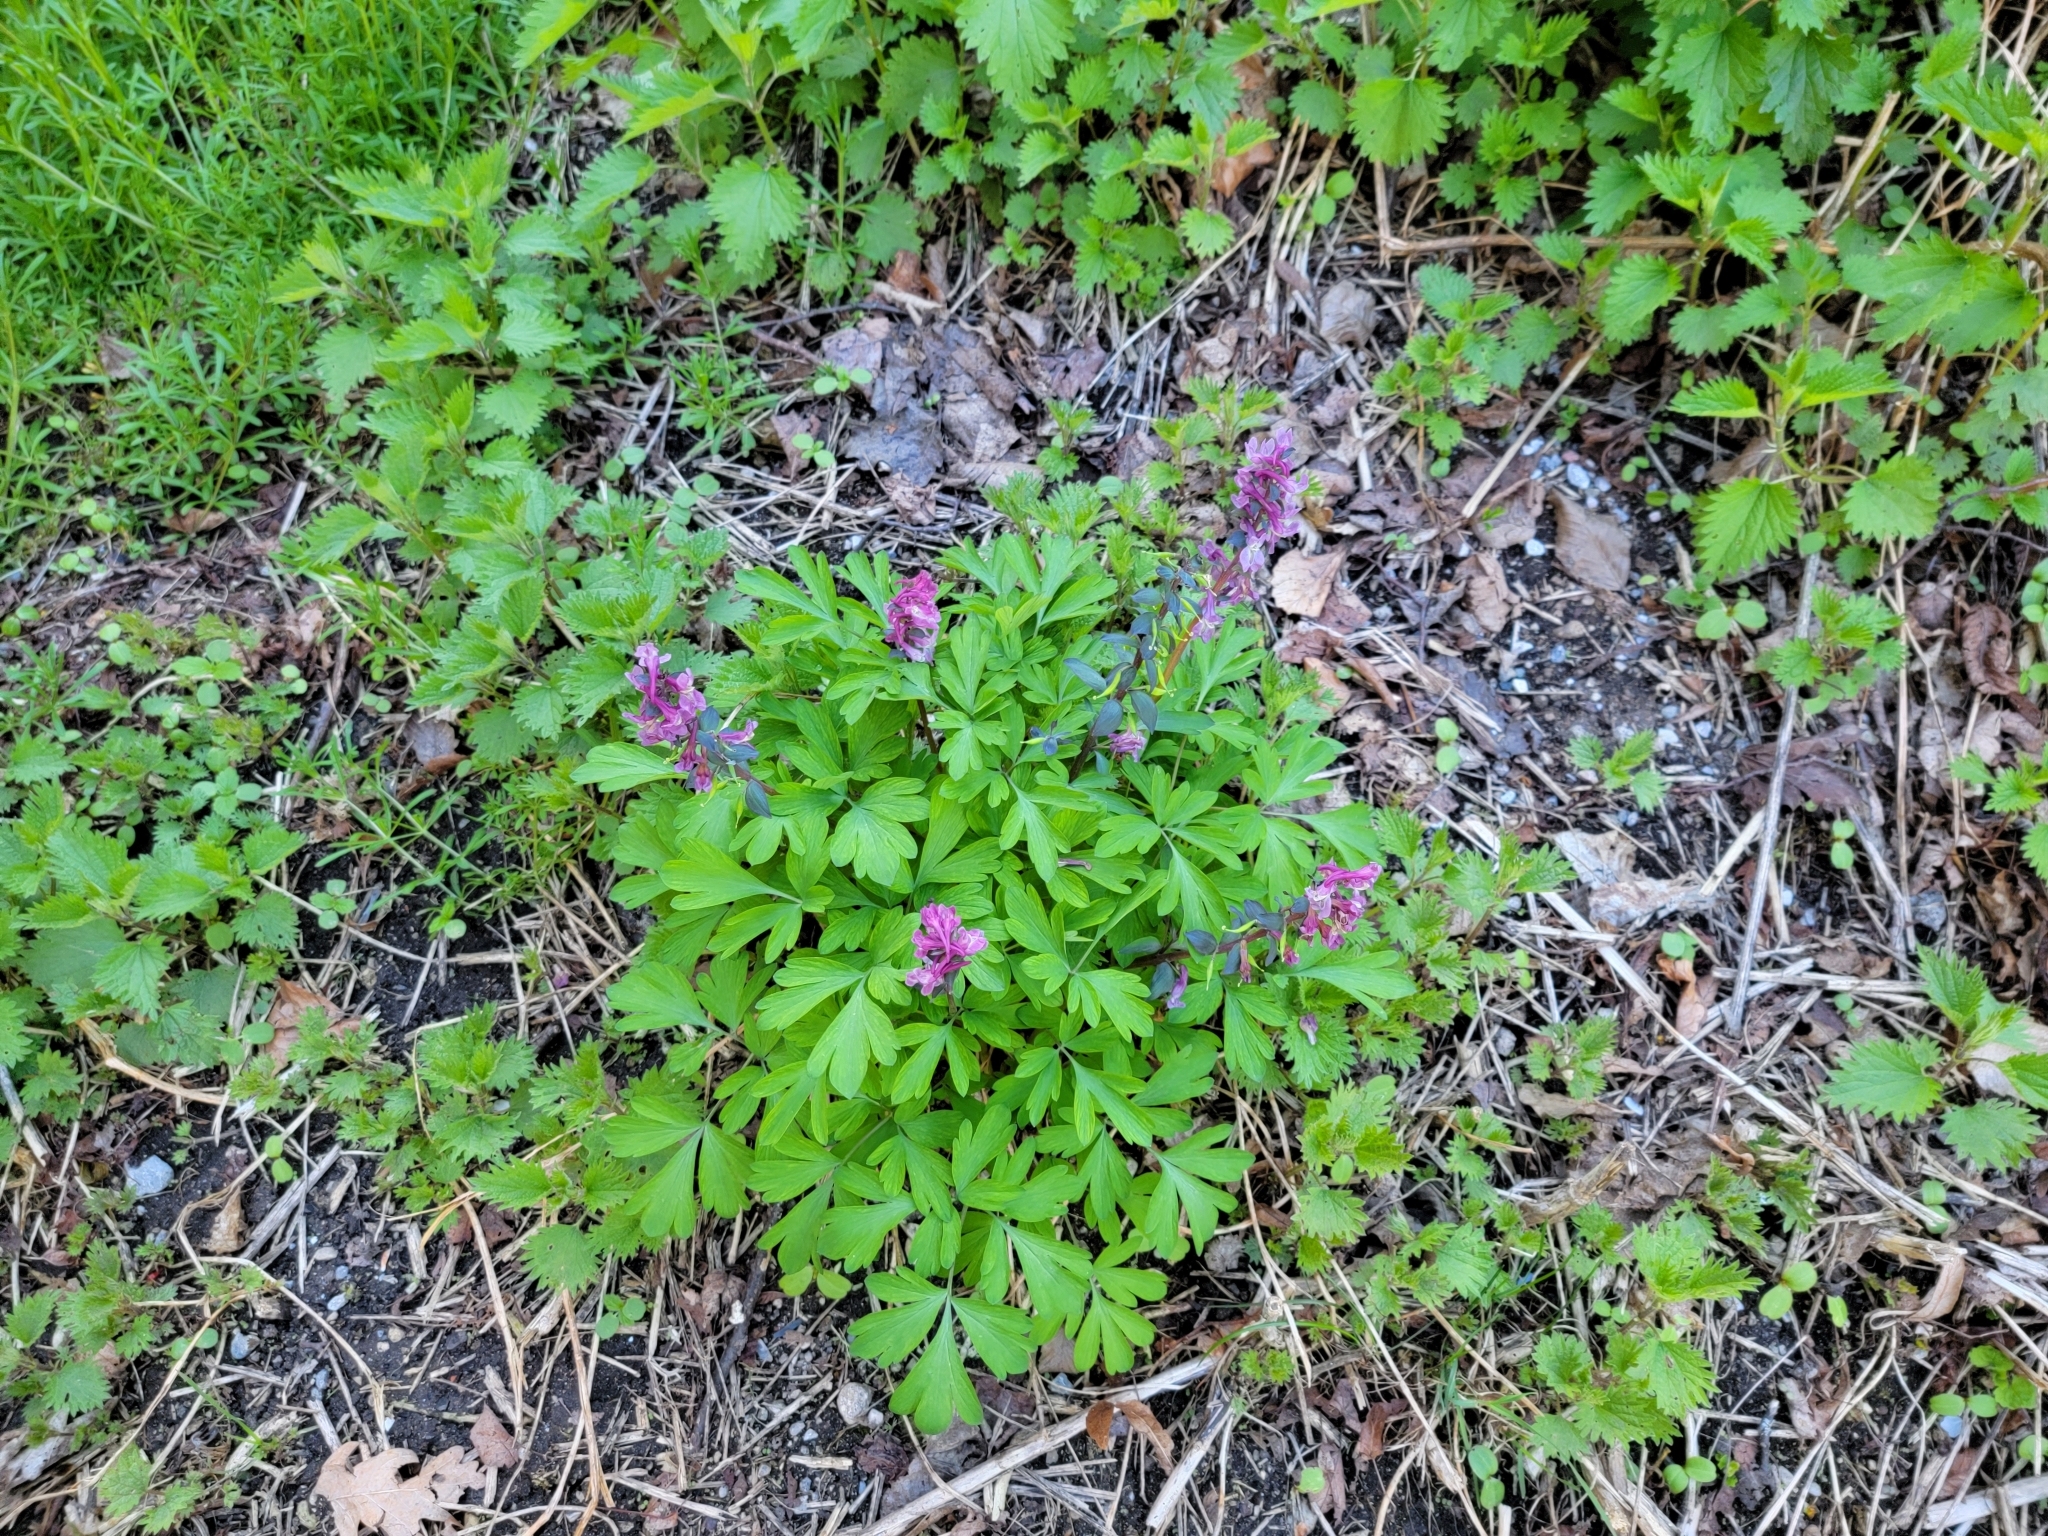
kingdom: Plantae
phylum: Tracheophyta
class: Magnoliopsida
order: Ranunculales
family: Papaveraceae
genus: Corydalis
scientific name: Corydalis cava
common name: Hollowroot
